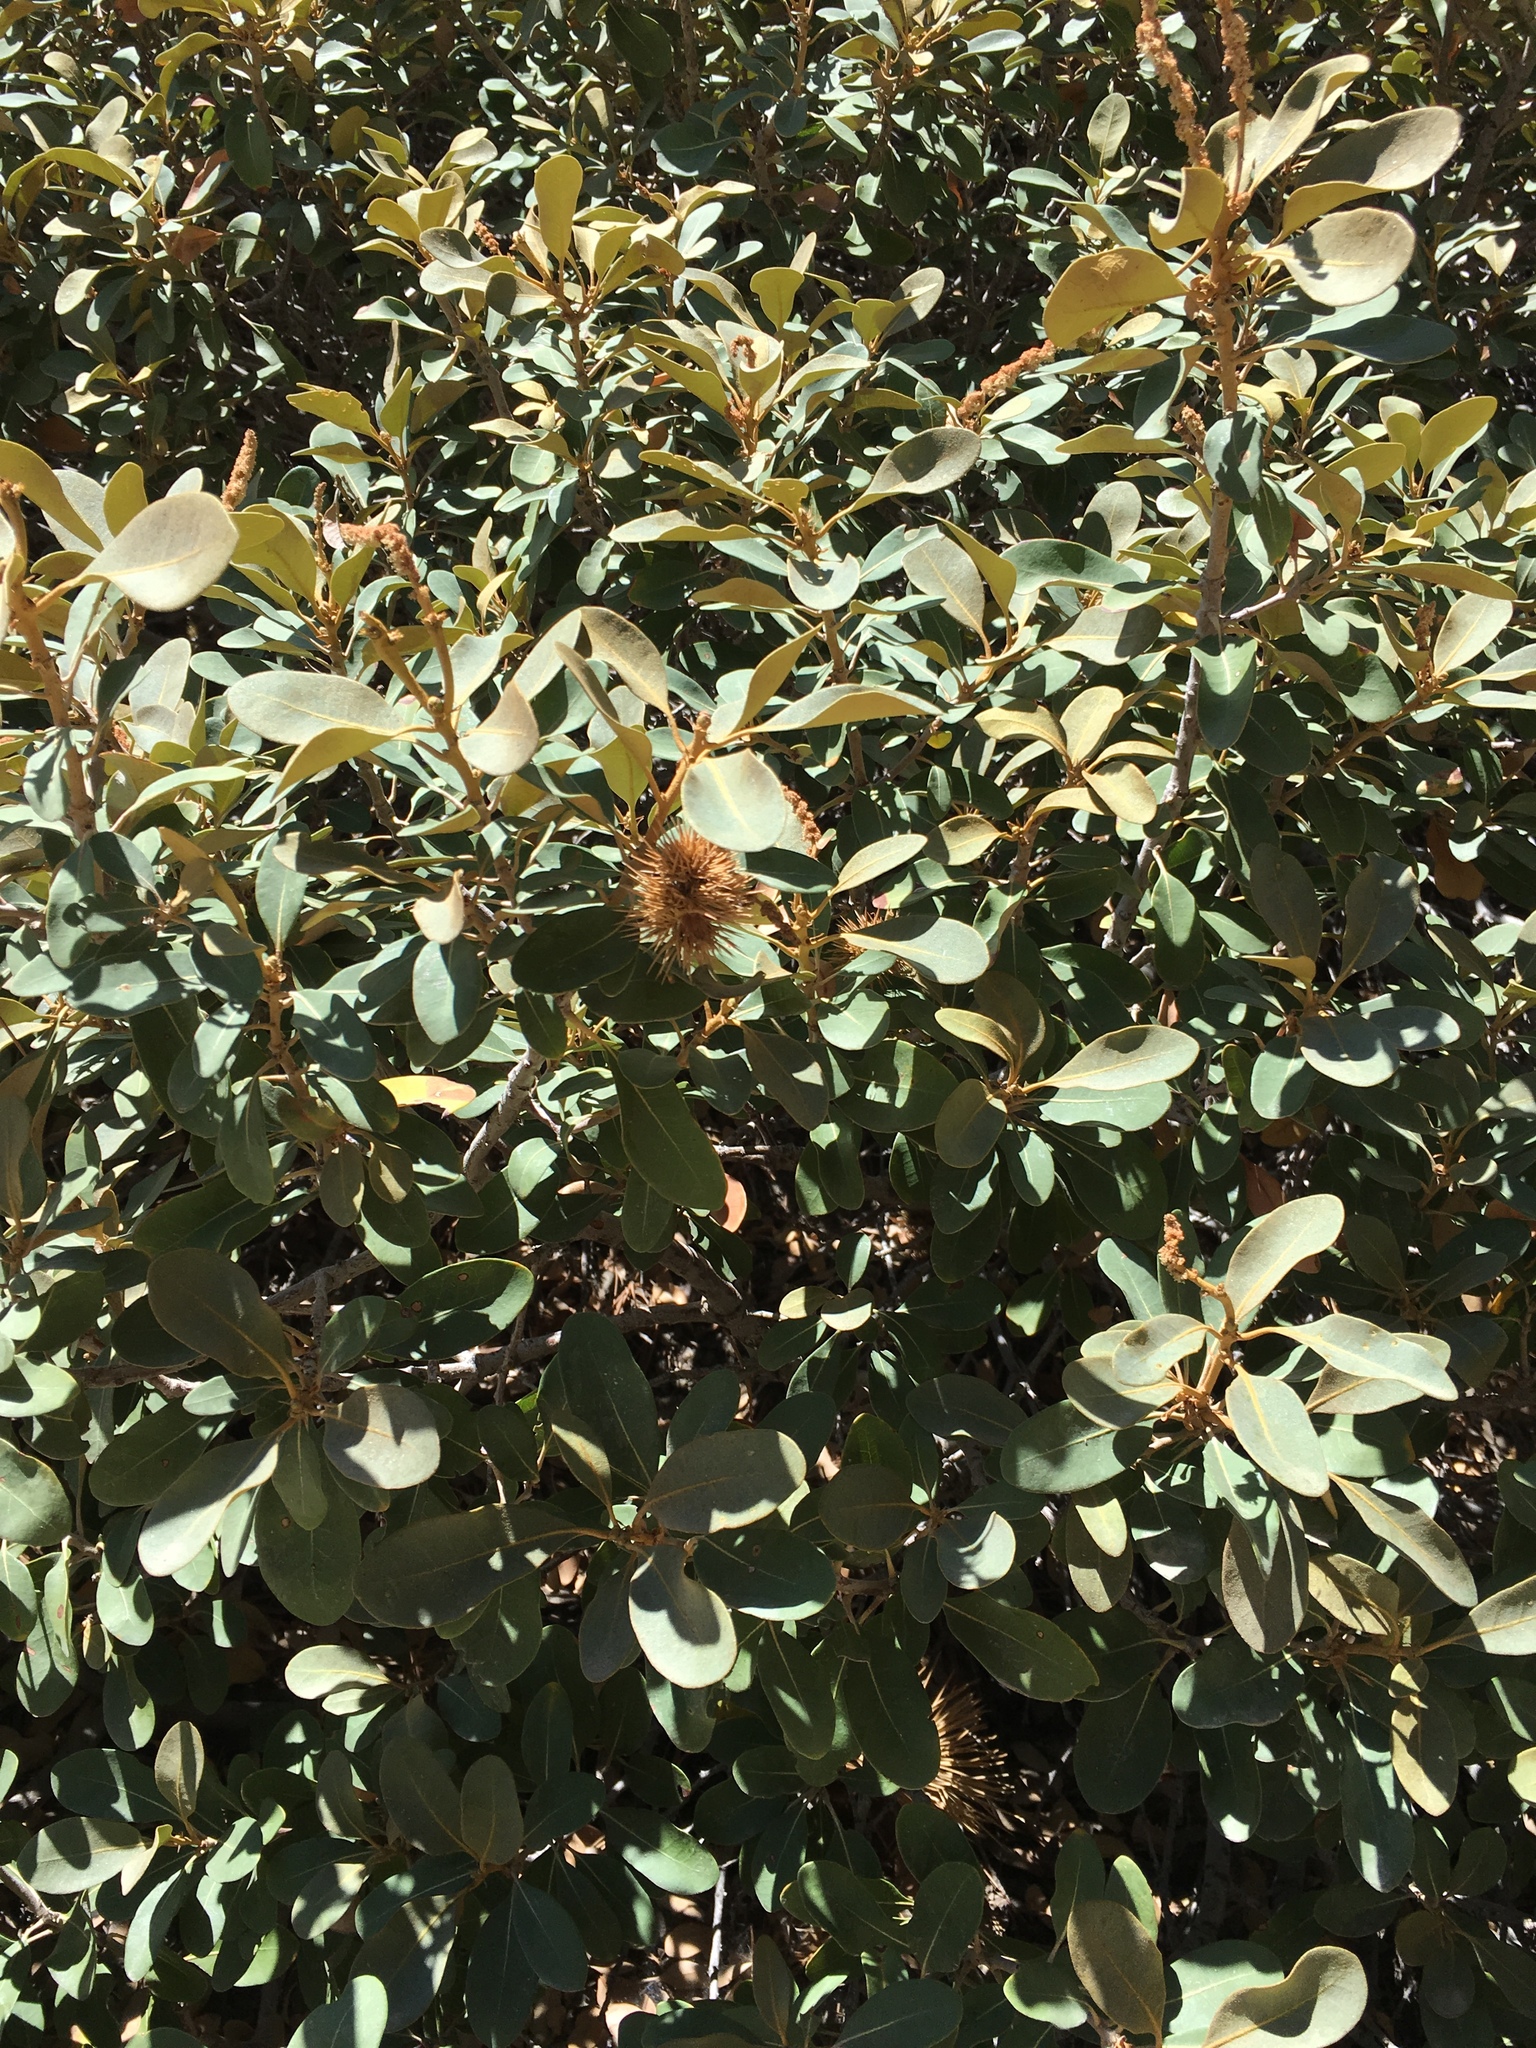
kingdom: Plantae
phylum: Tracheophyta
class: Magnoliopsida
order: Fagales
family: Fagaceae
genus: Chrysolepis
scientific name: Chrysolepis sempervirens
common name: Bush chinquapin
